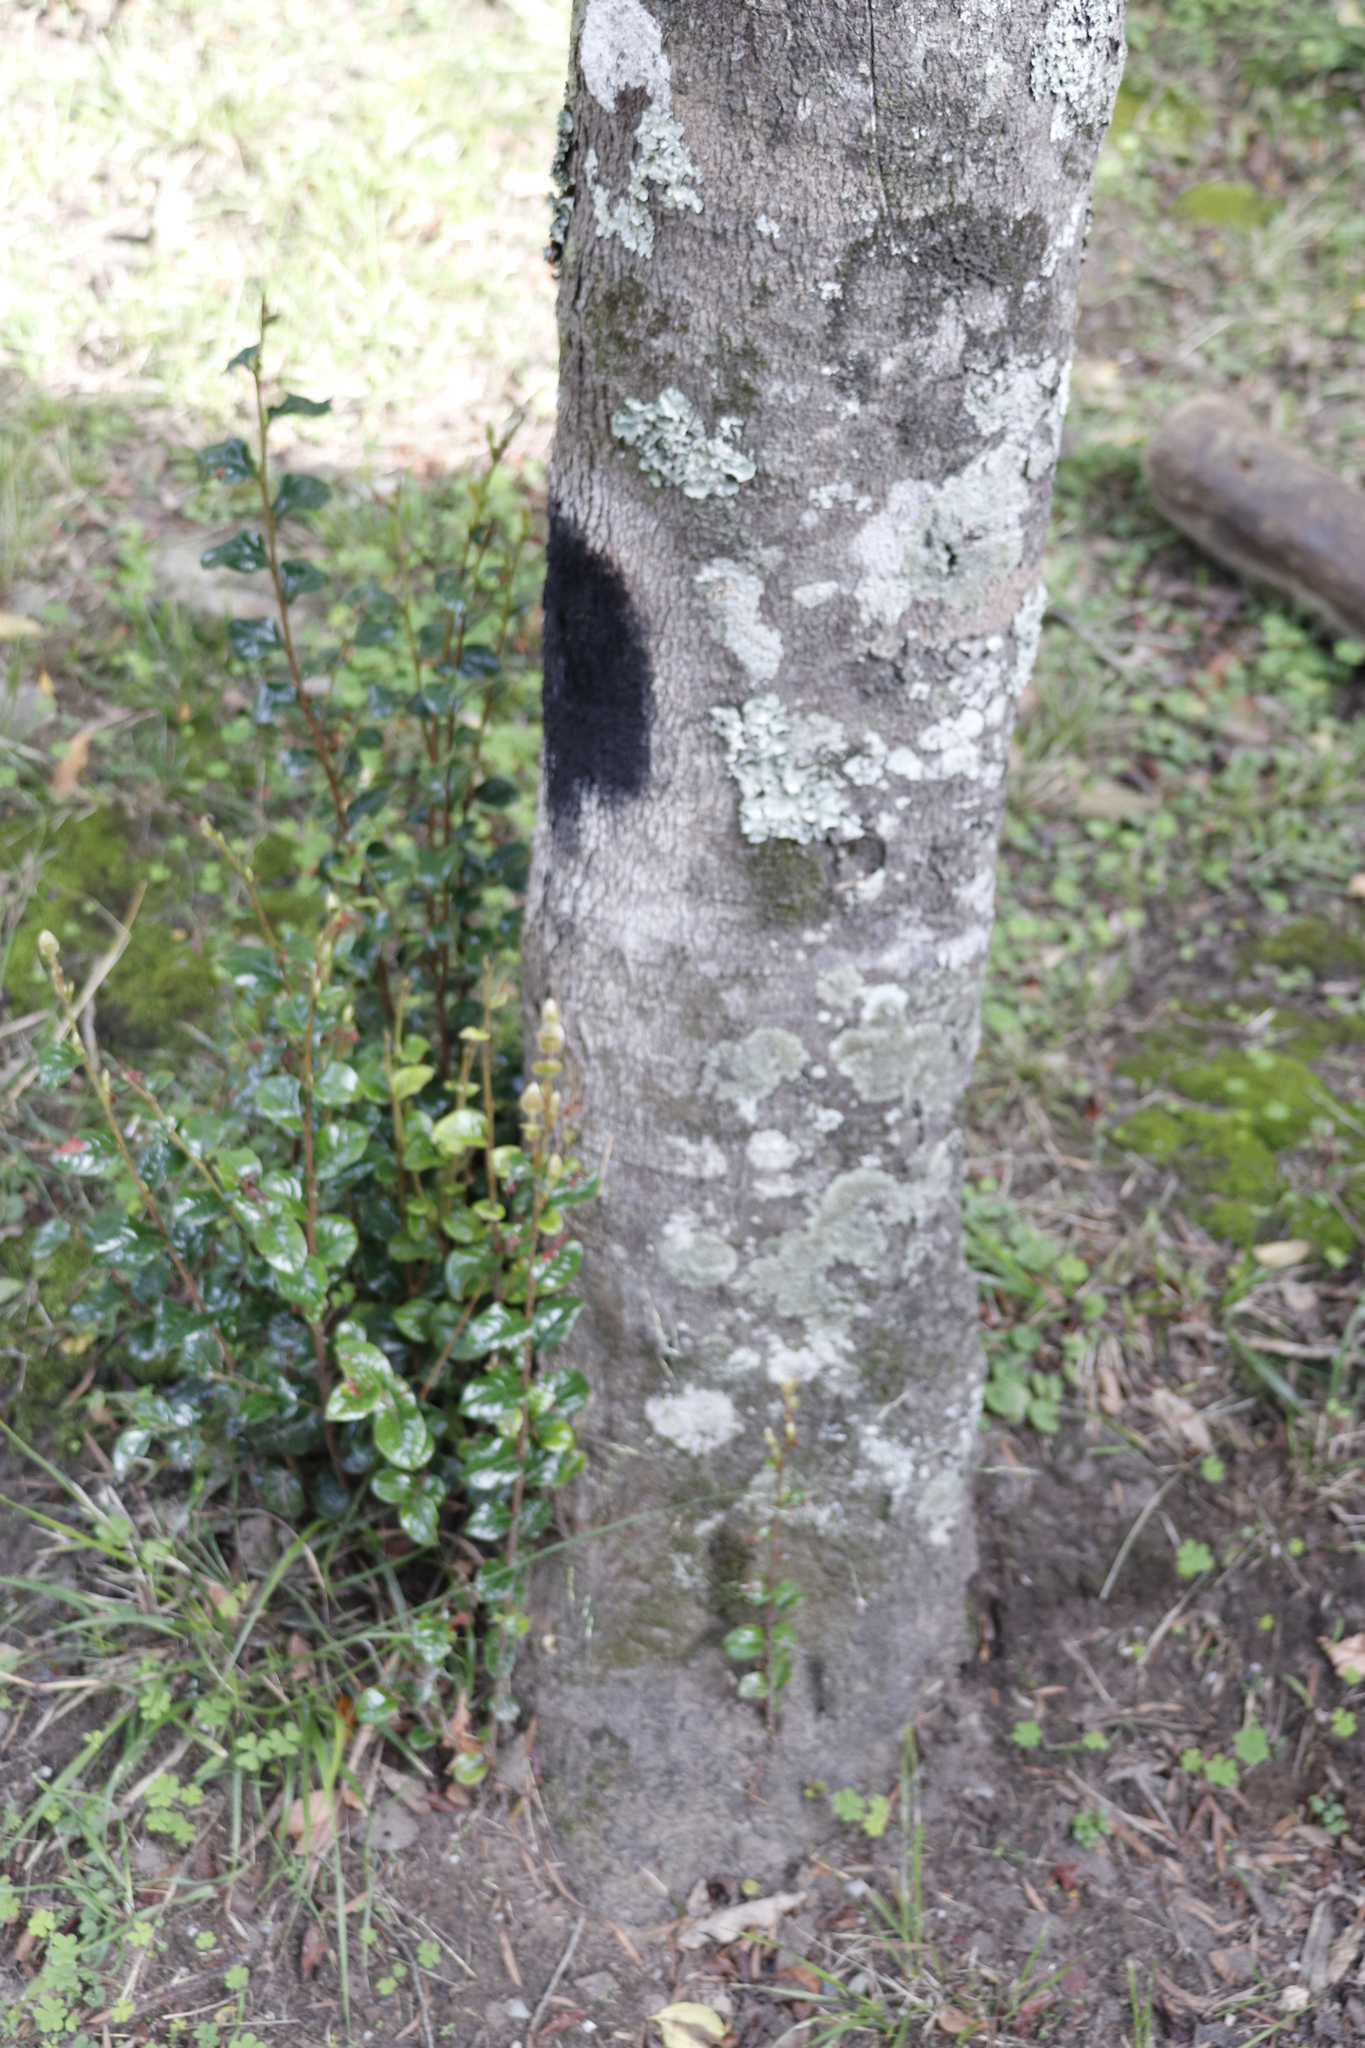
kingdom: Plantae
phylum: Tracheophyta
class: Magnoliopsida
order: Ericales
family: Ebenaceae
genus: Diospyros
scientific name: Diospyros whyteana
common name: Bladder-nut
